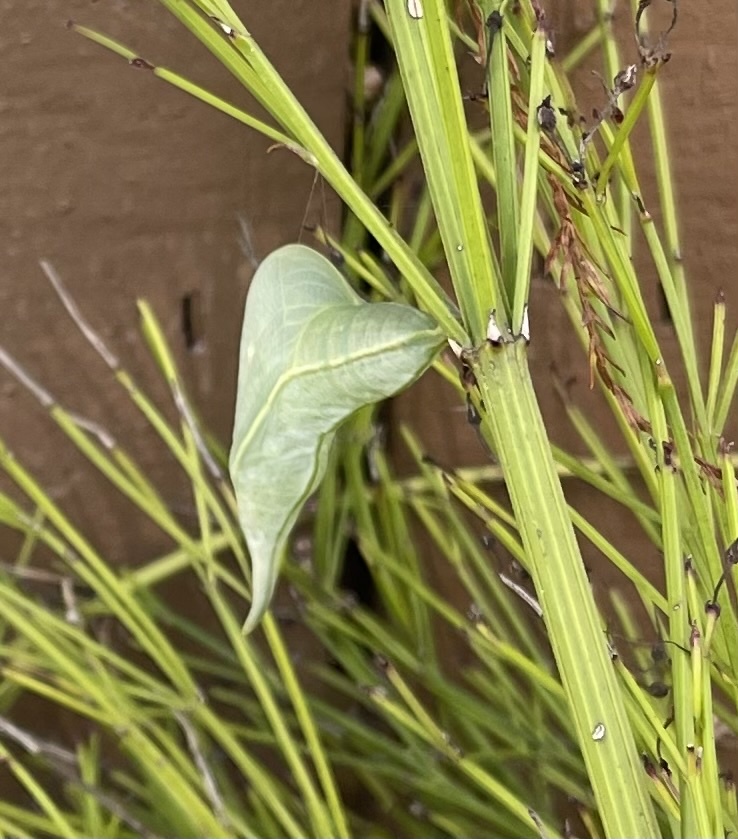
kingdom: Animalia
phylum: Arthropoda
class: Insecta
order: Lepidoptera
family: Pieridae
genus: Phoebis
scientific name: Phoebis philea
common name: Orange-barred giant sulphur
